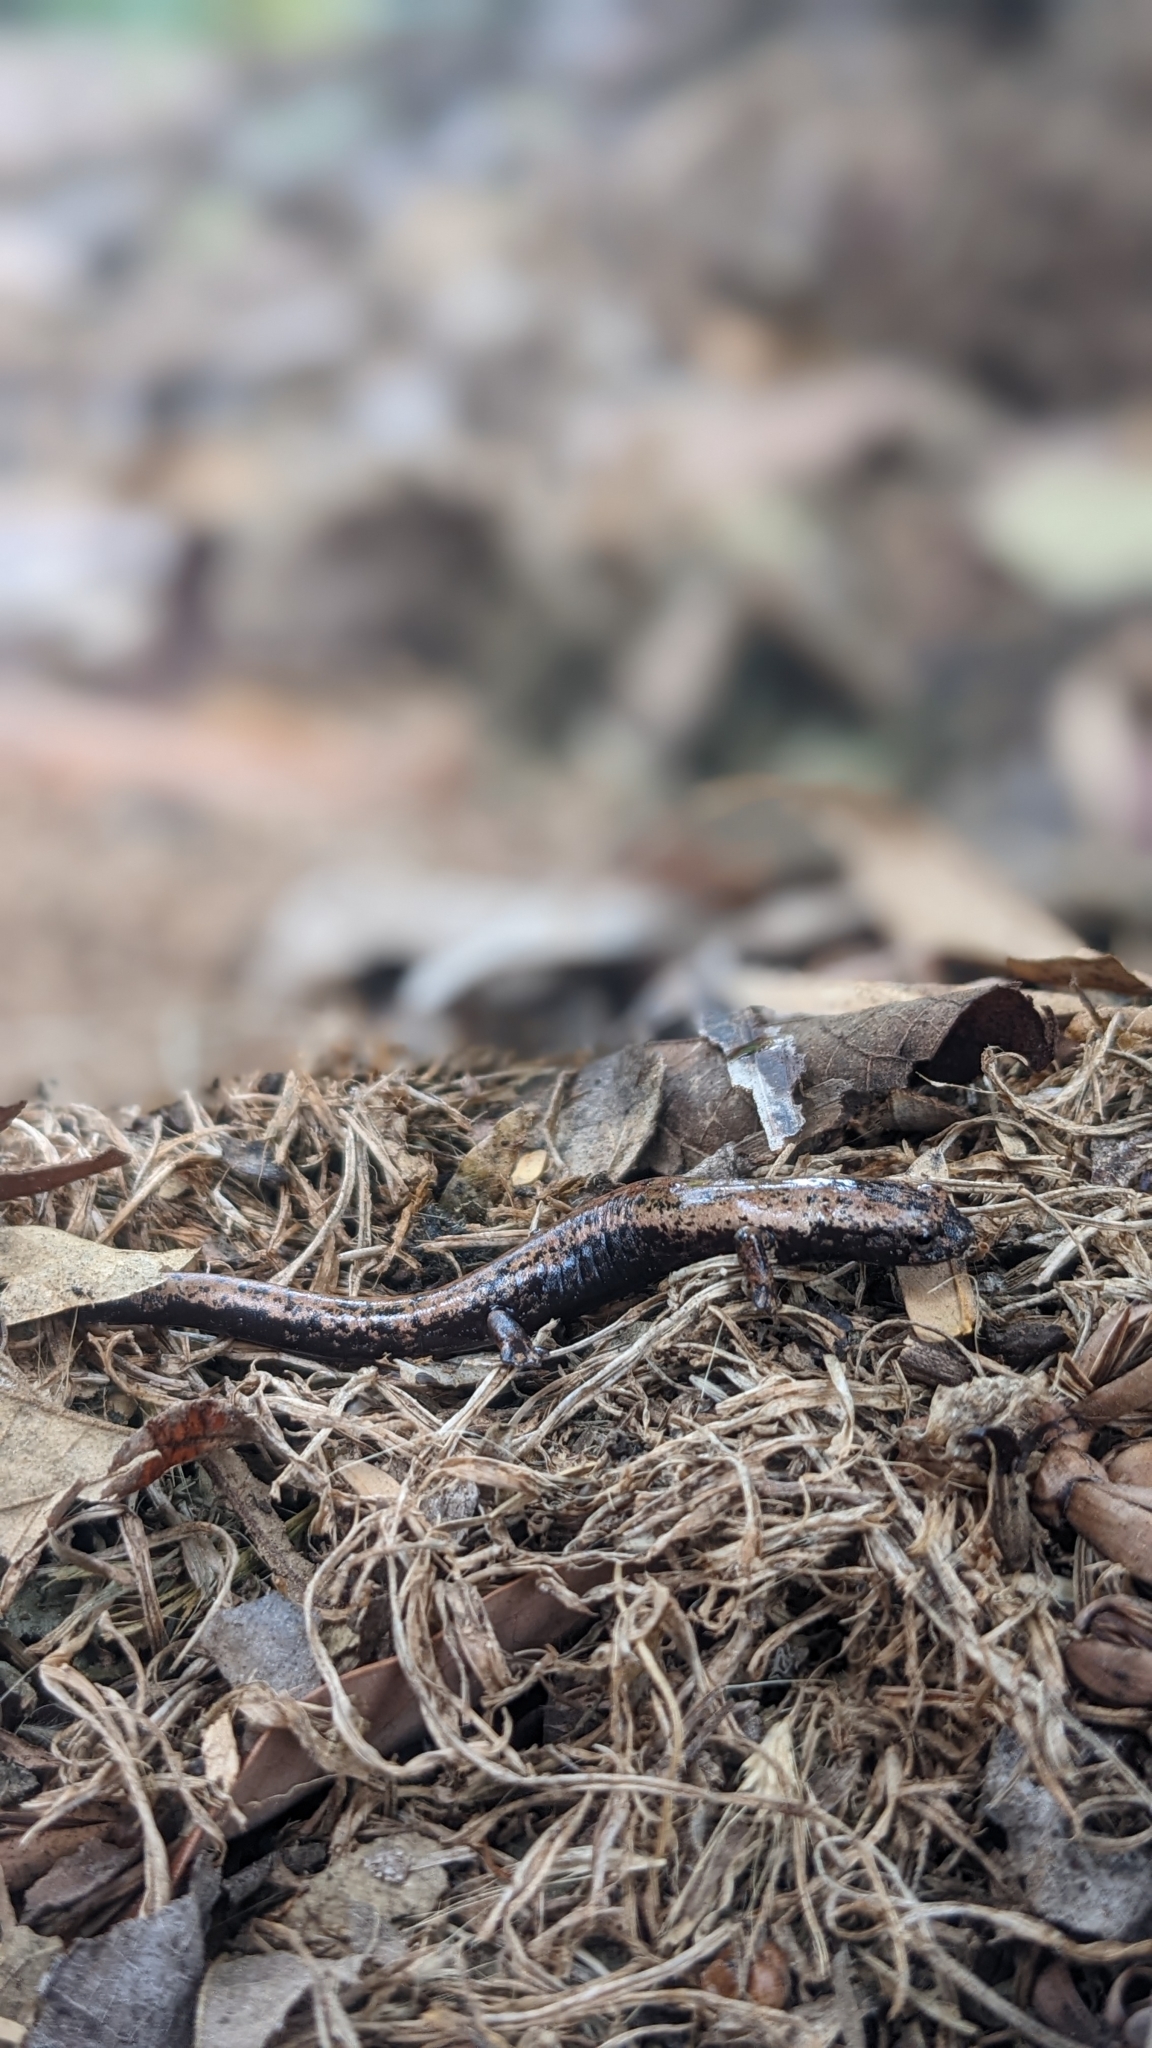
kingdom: Animalia
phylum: Chordata
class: Amphibia
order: Caudata
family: Plethodontidae
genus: Bolitoglossa
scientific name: Bolitoglossa mexicana
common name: Black-and-gold salamander
